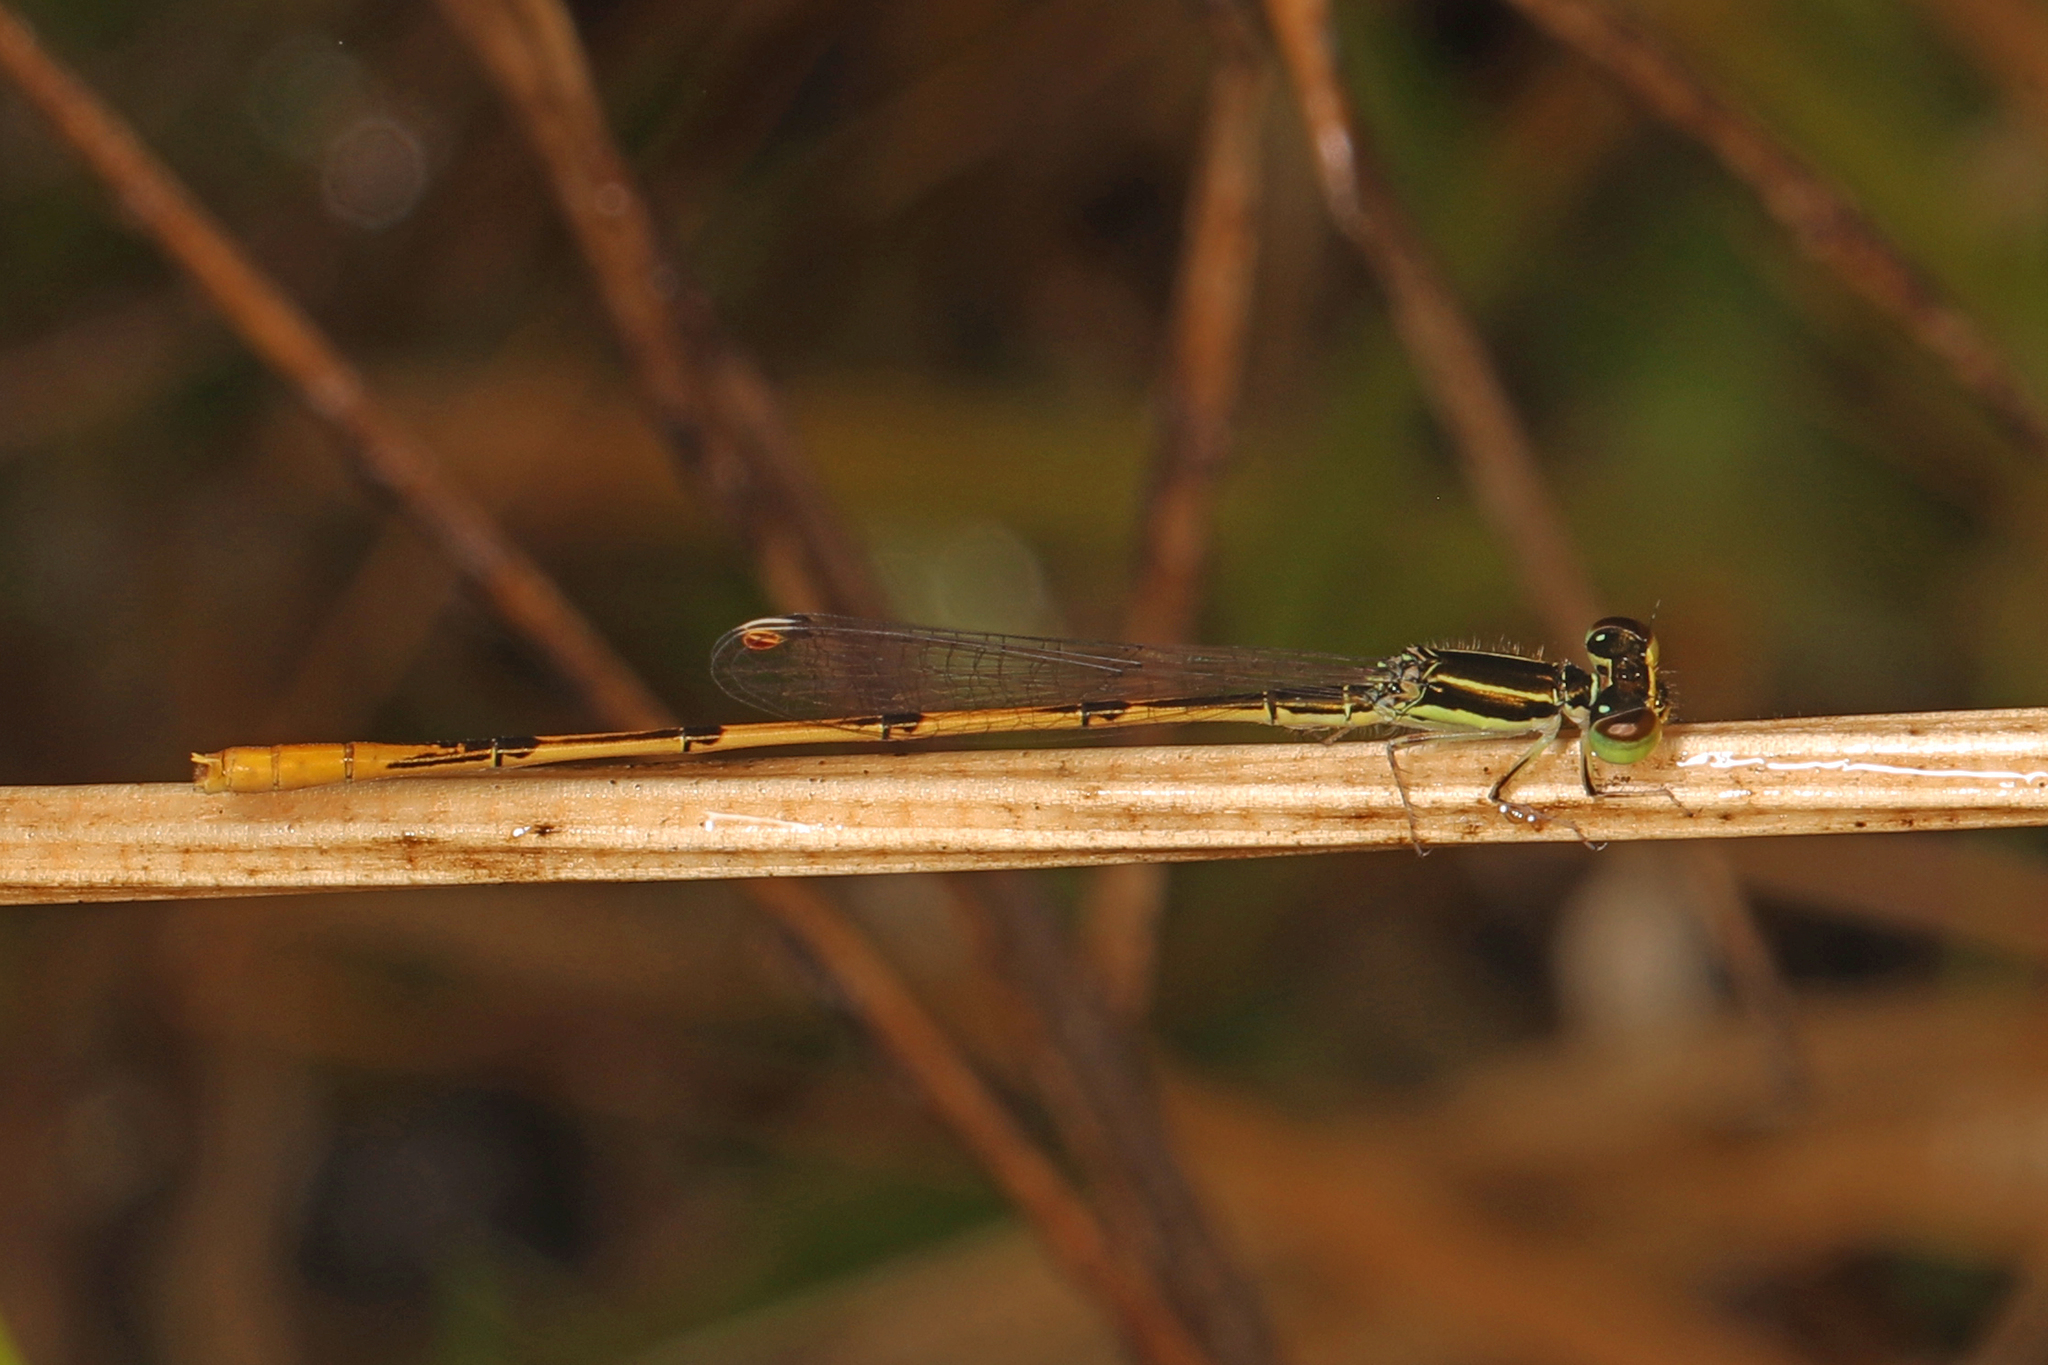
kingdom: Animalia
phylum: Arthropoda
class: Insecta
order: Odonata
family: Coenagrionidae
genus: Ischnura
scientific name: Ischnura hastata
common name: Citrine forktail
